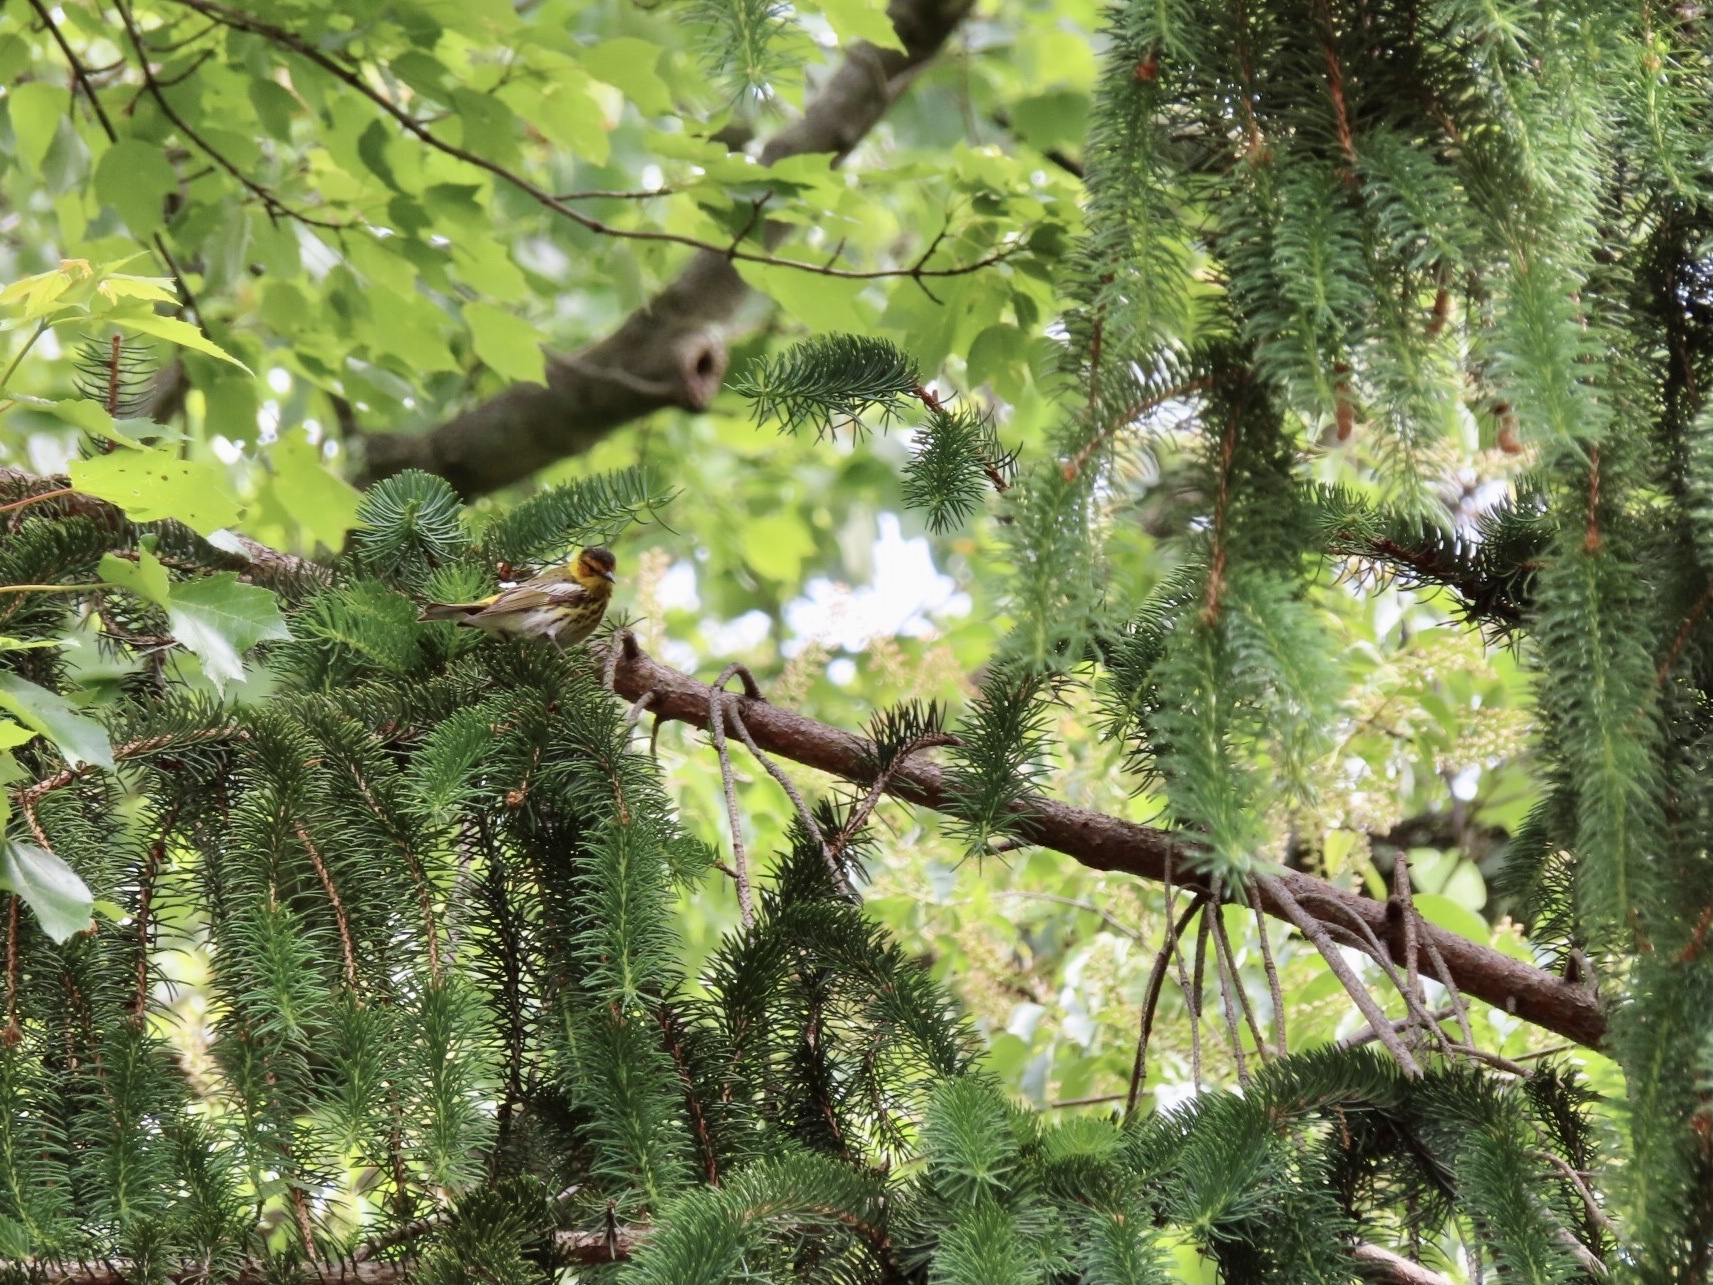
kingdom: Animalia
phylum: Chordata
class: Aves
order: Passeriformes
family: Parulidae
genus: Setophaga
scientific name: Setophaga tigrina
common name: Cape may warbler
